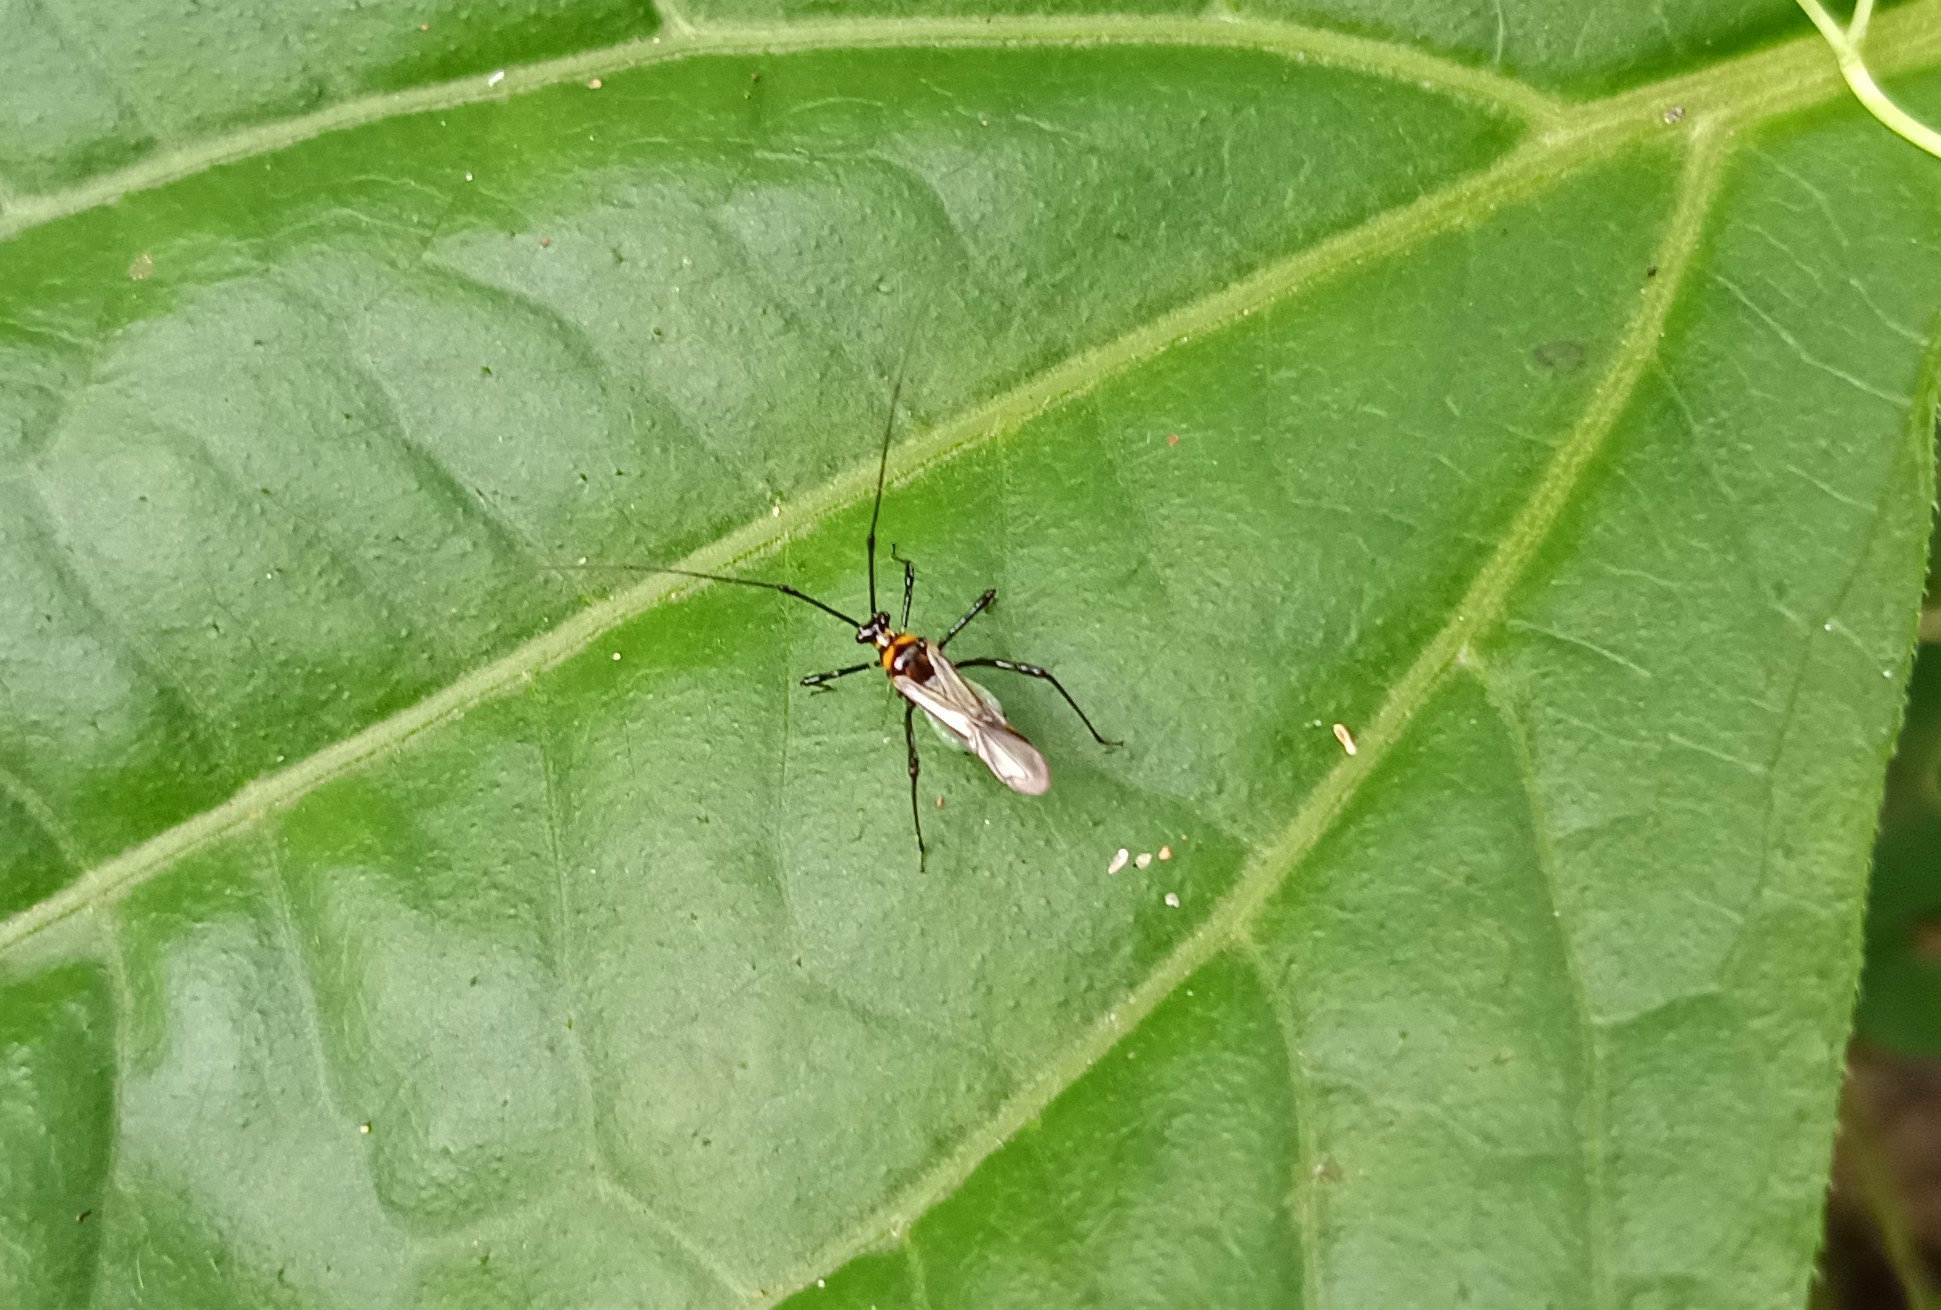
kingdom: Animalia
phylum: Arthropoda
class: Insecta
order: Hemiptera
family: Miridae
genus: Helopeltis
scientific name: Helopeltis theivora
